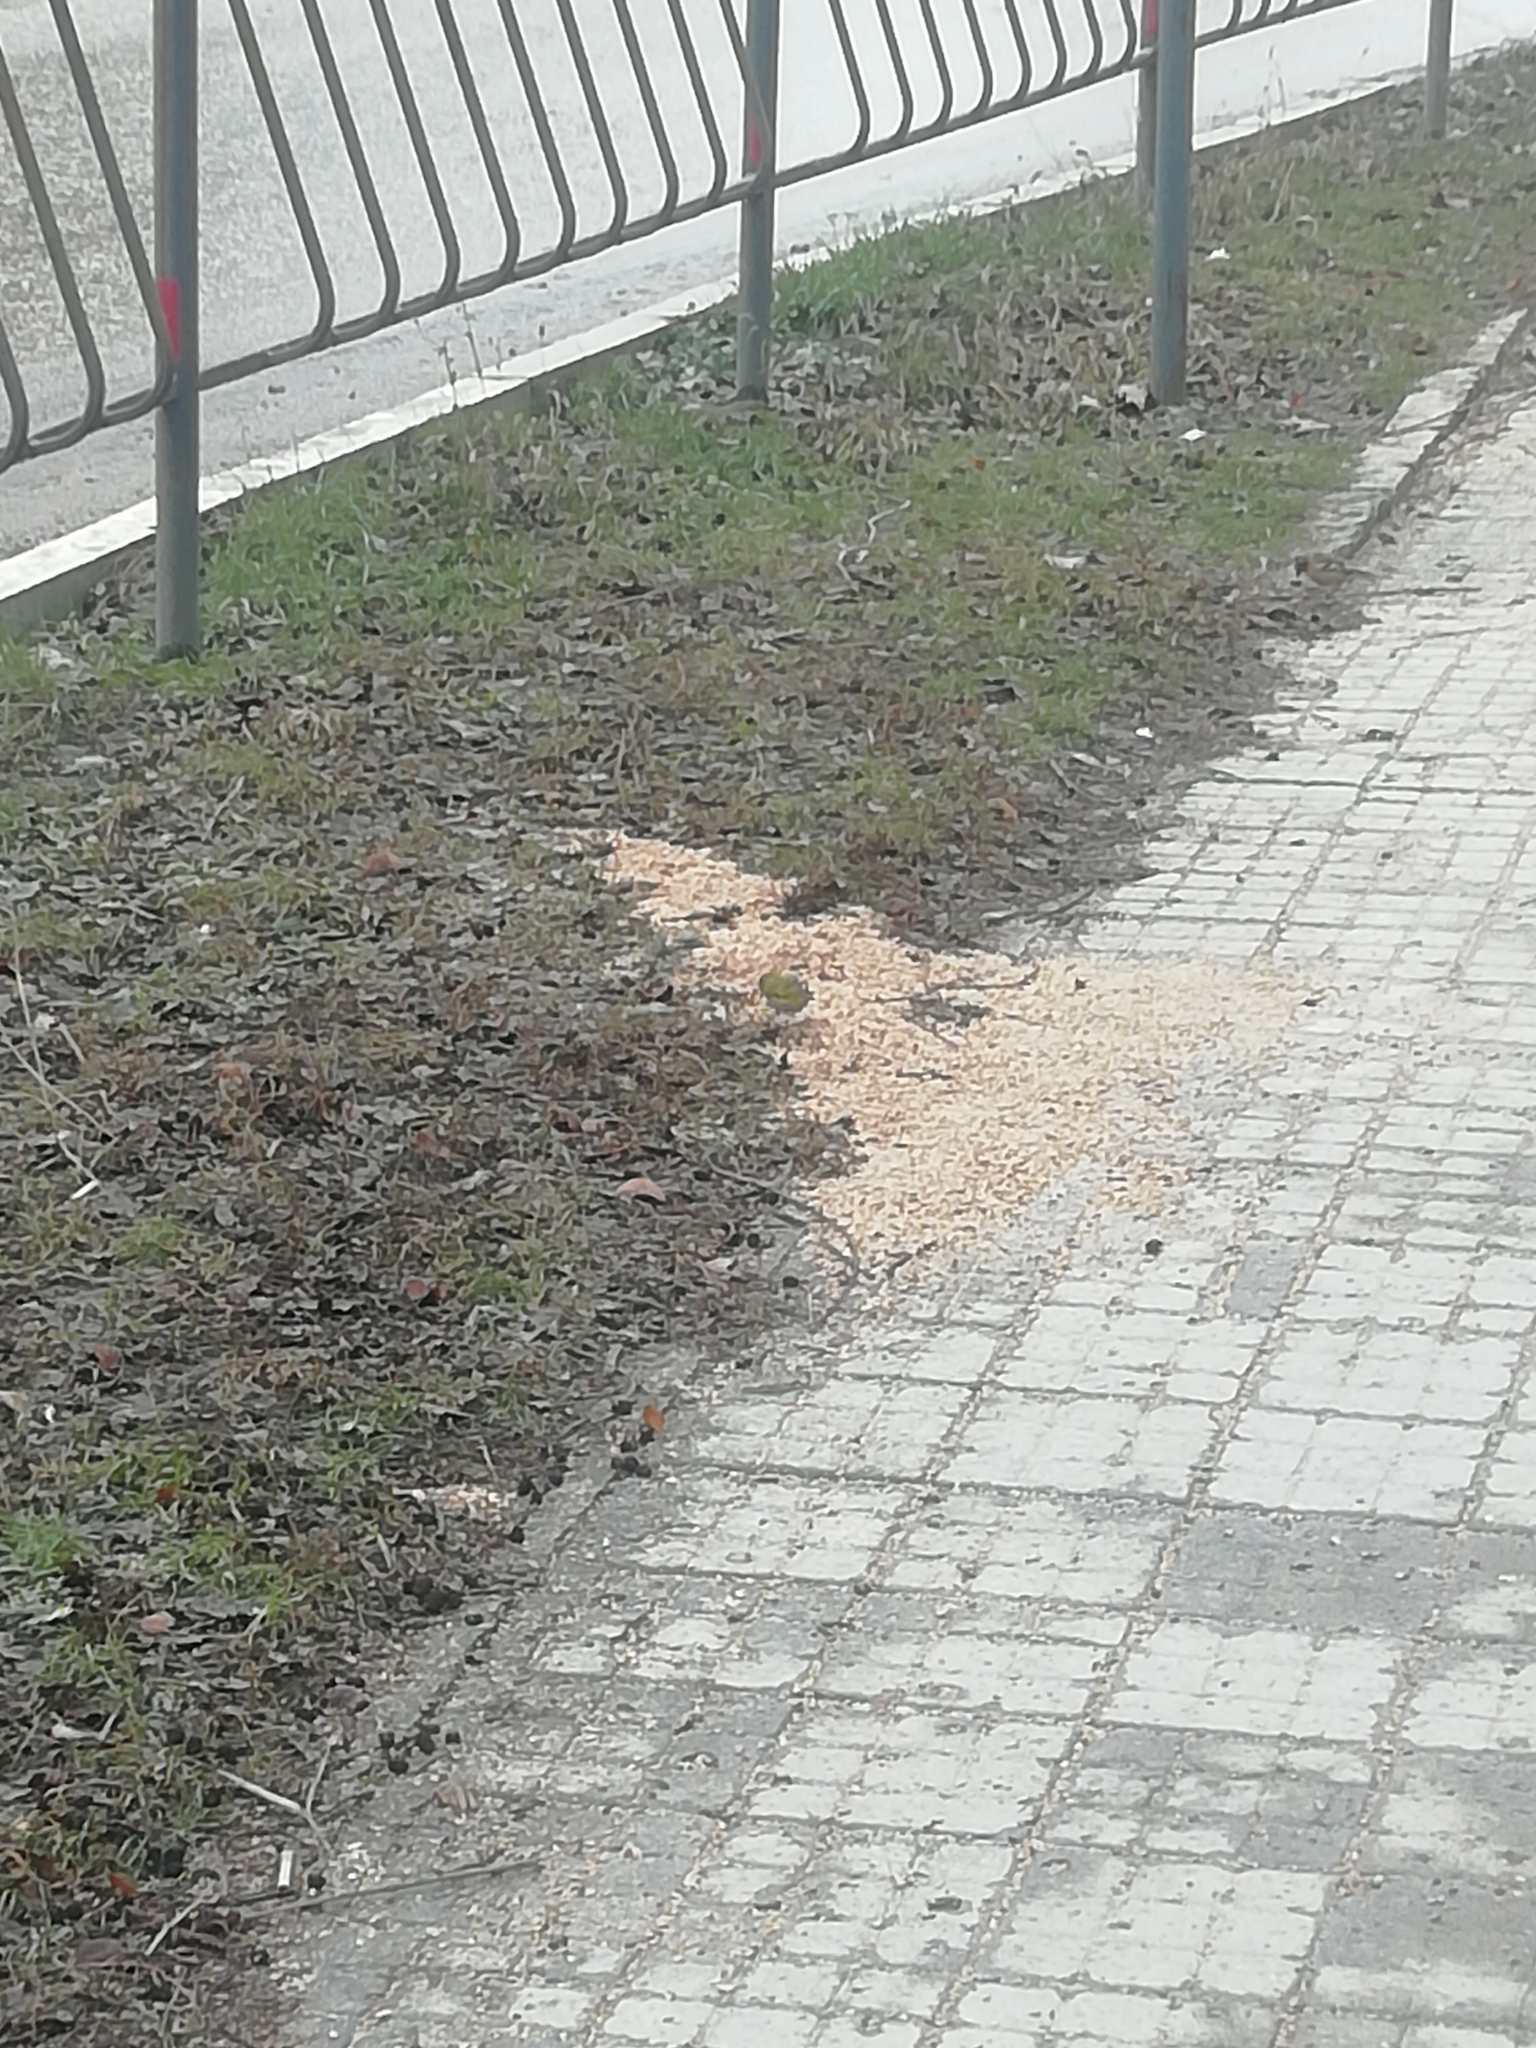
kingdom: Animalia
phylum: Chordata
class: Aves
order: Passeriformes
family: Fringillidae
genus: Spinus
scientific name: Spinus spinus
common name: Eurasian siskin
